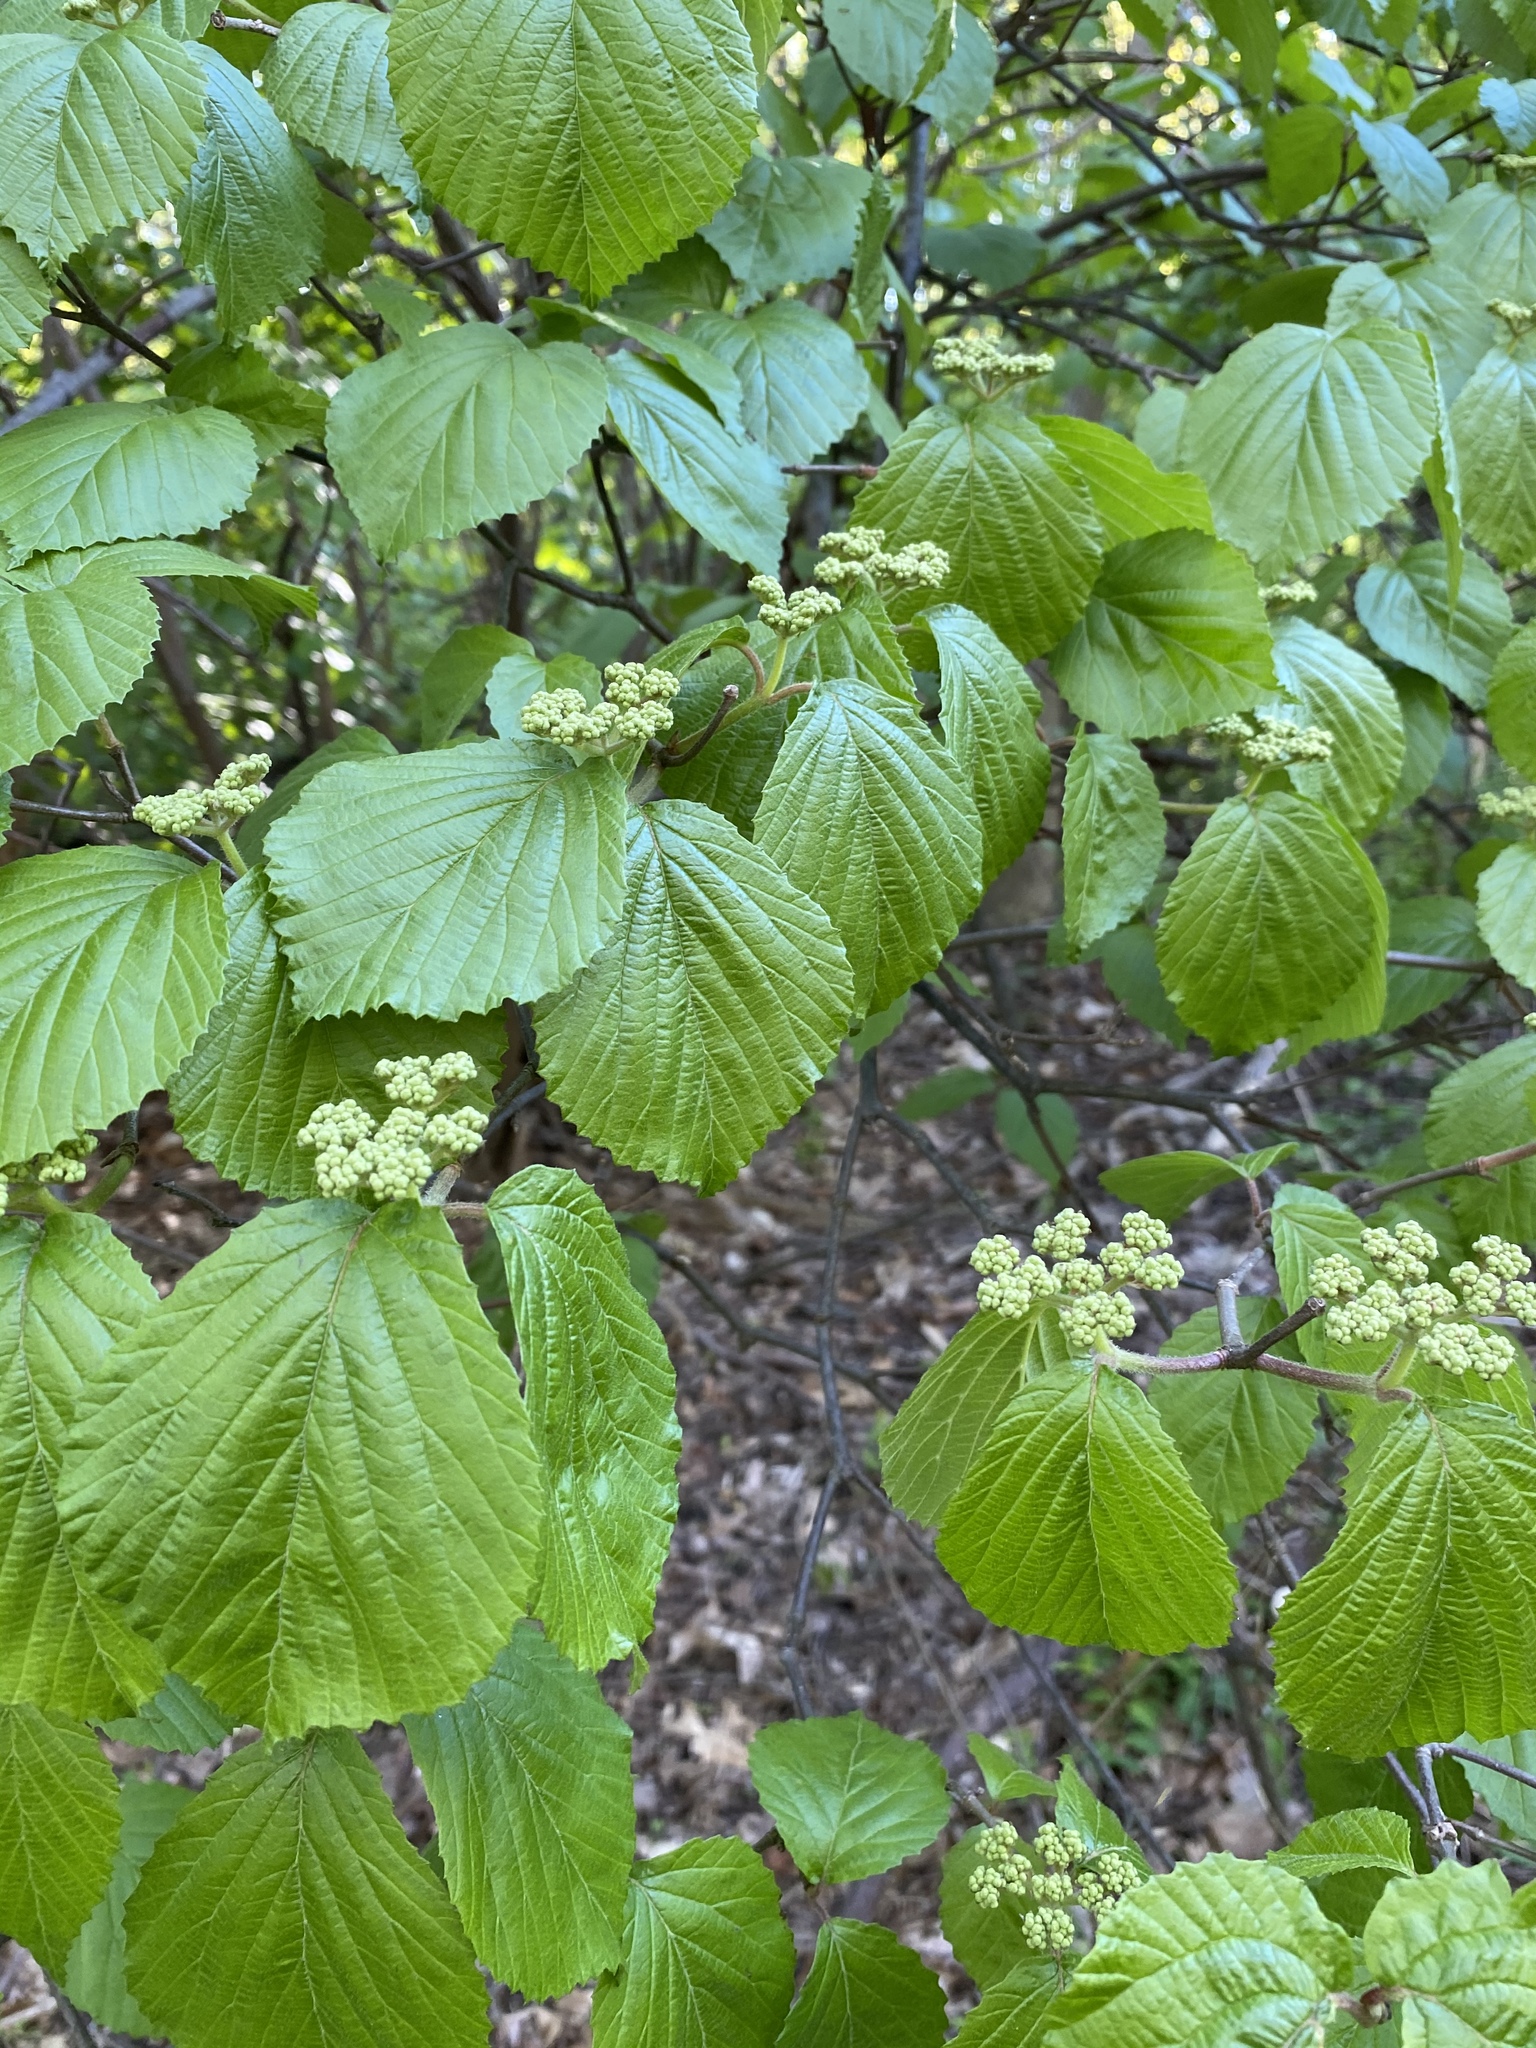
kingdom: Plantae
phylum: Tracheophyta
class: Magnoliopsida
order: Dipsacales
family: Viburnaceae
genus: Viburnum
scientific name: Viburnum dilatatum
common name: Linden arrowwood
